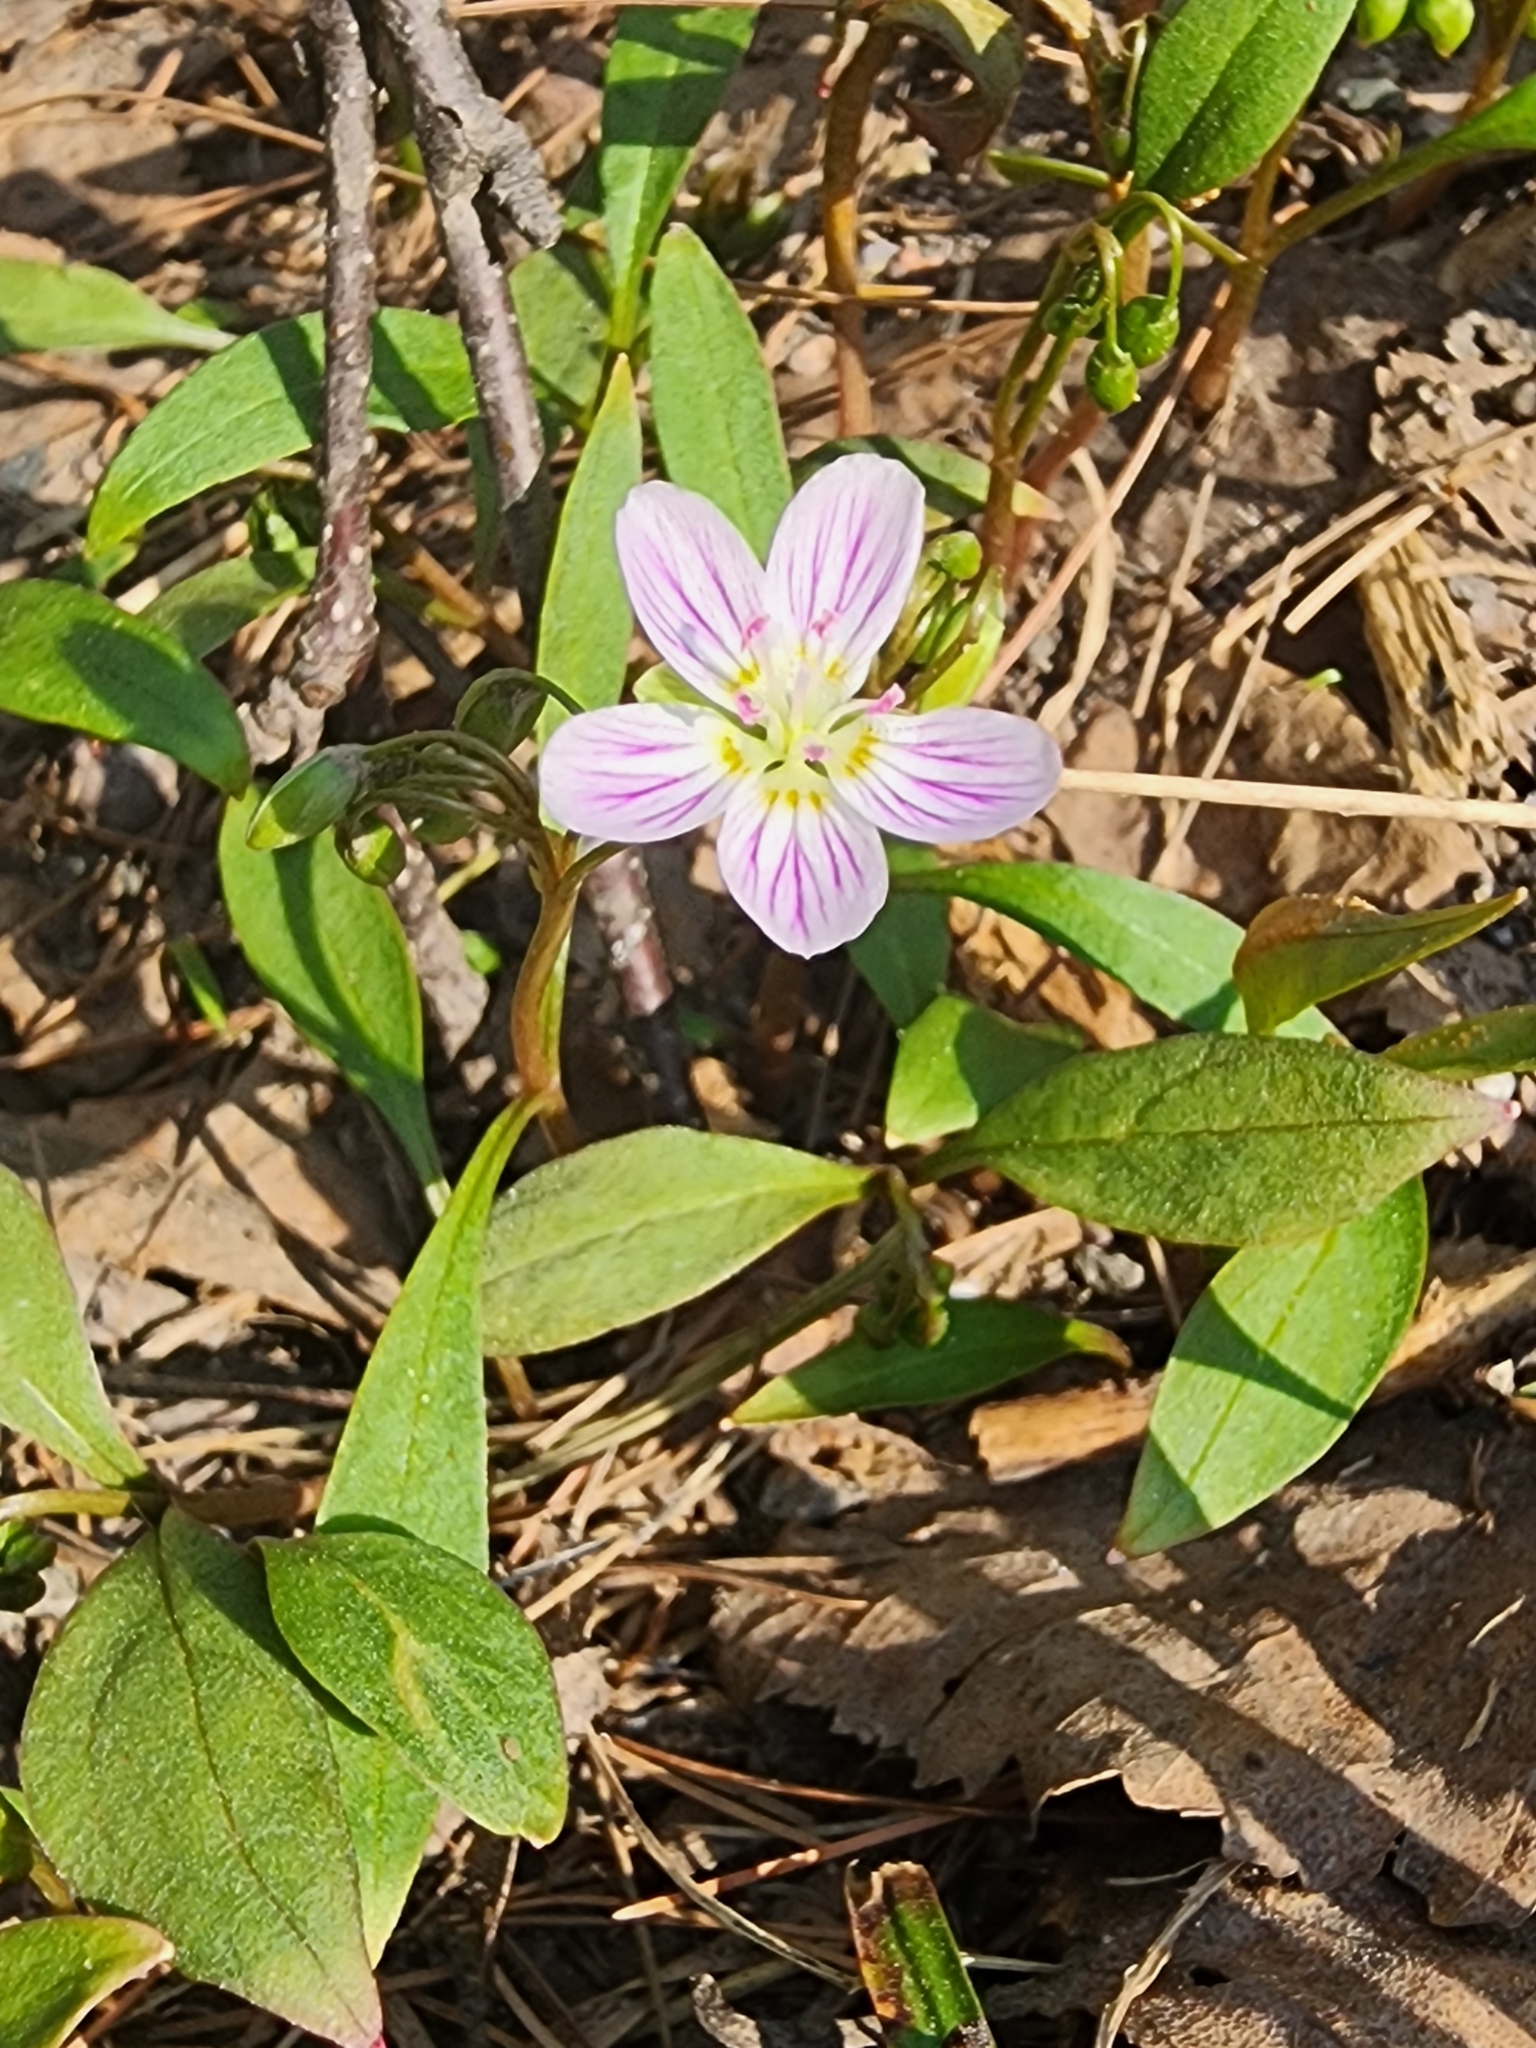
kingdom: Plantae
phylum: Tracheophyta
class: Magnoliopsida
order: Caryophyllales
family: Montiaceae
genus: Claytonia
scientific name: Claytonia caroliniana
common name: Carolina spring beauty
